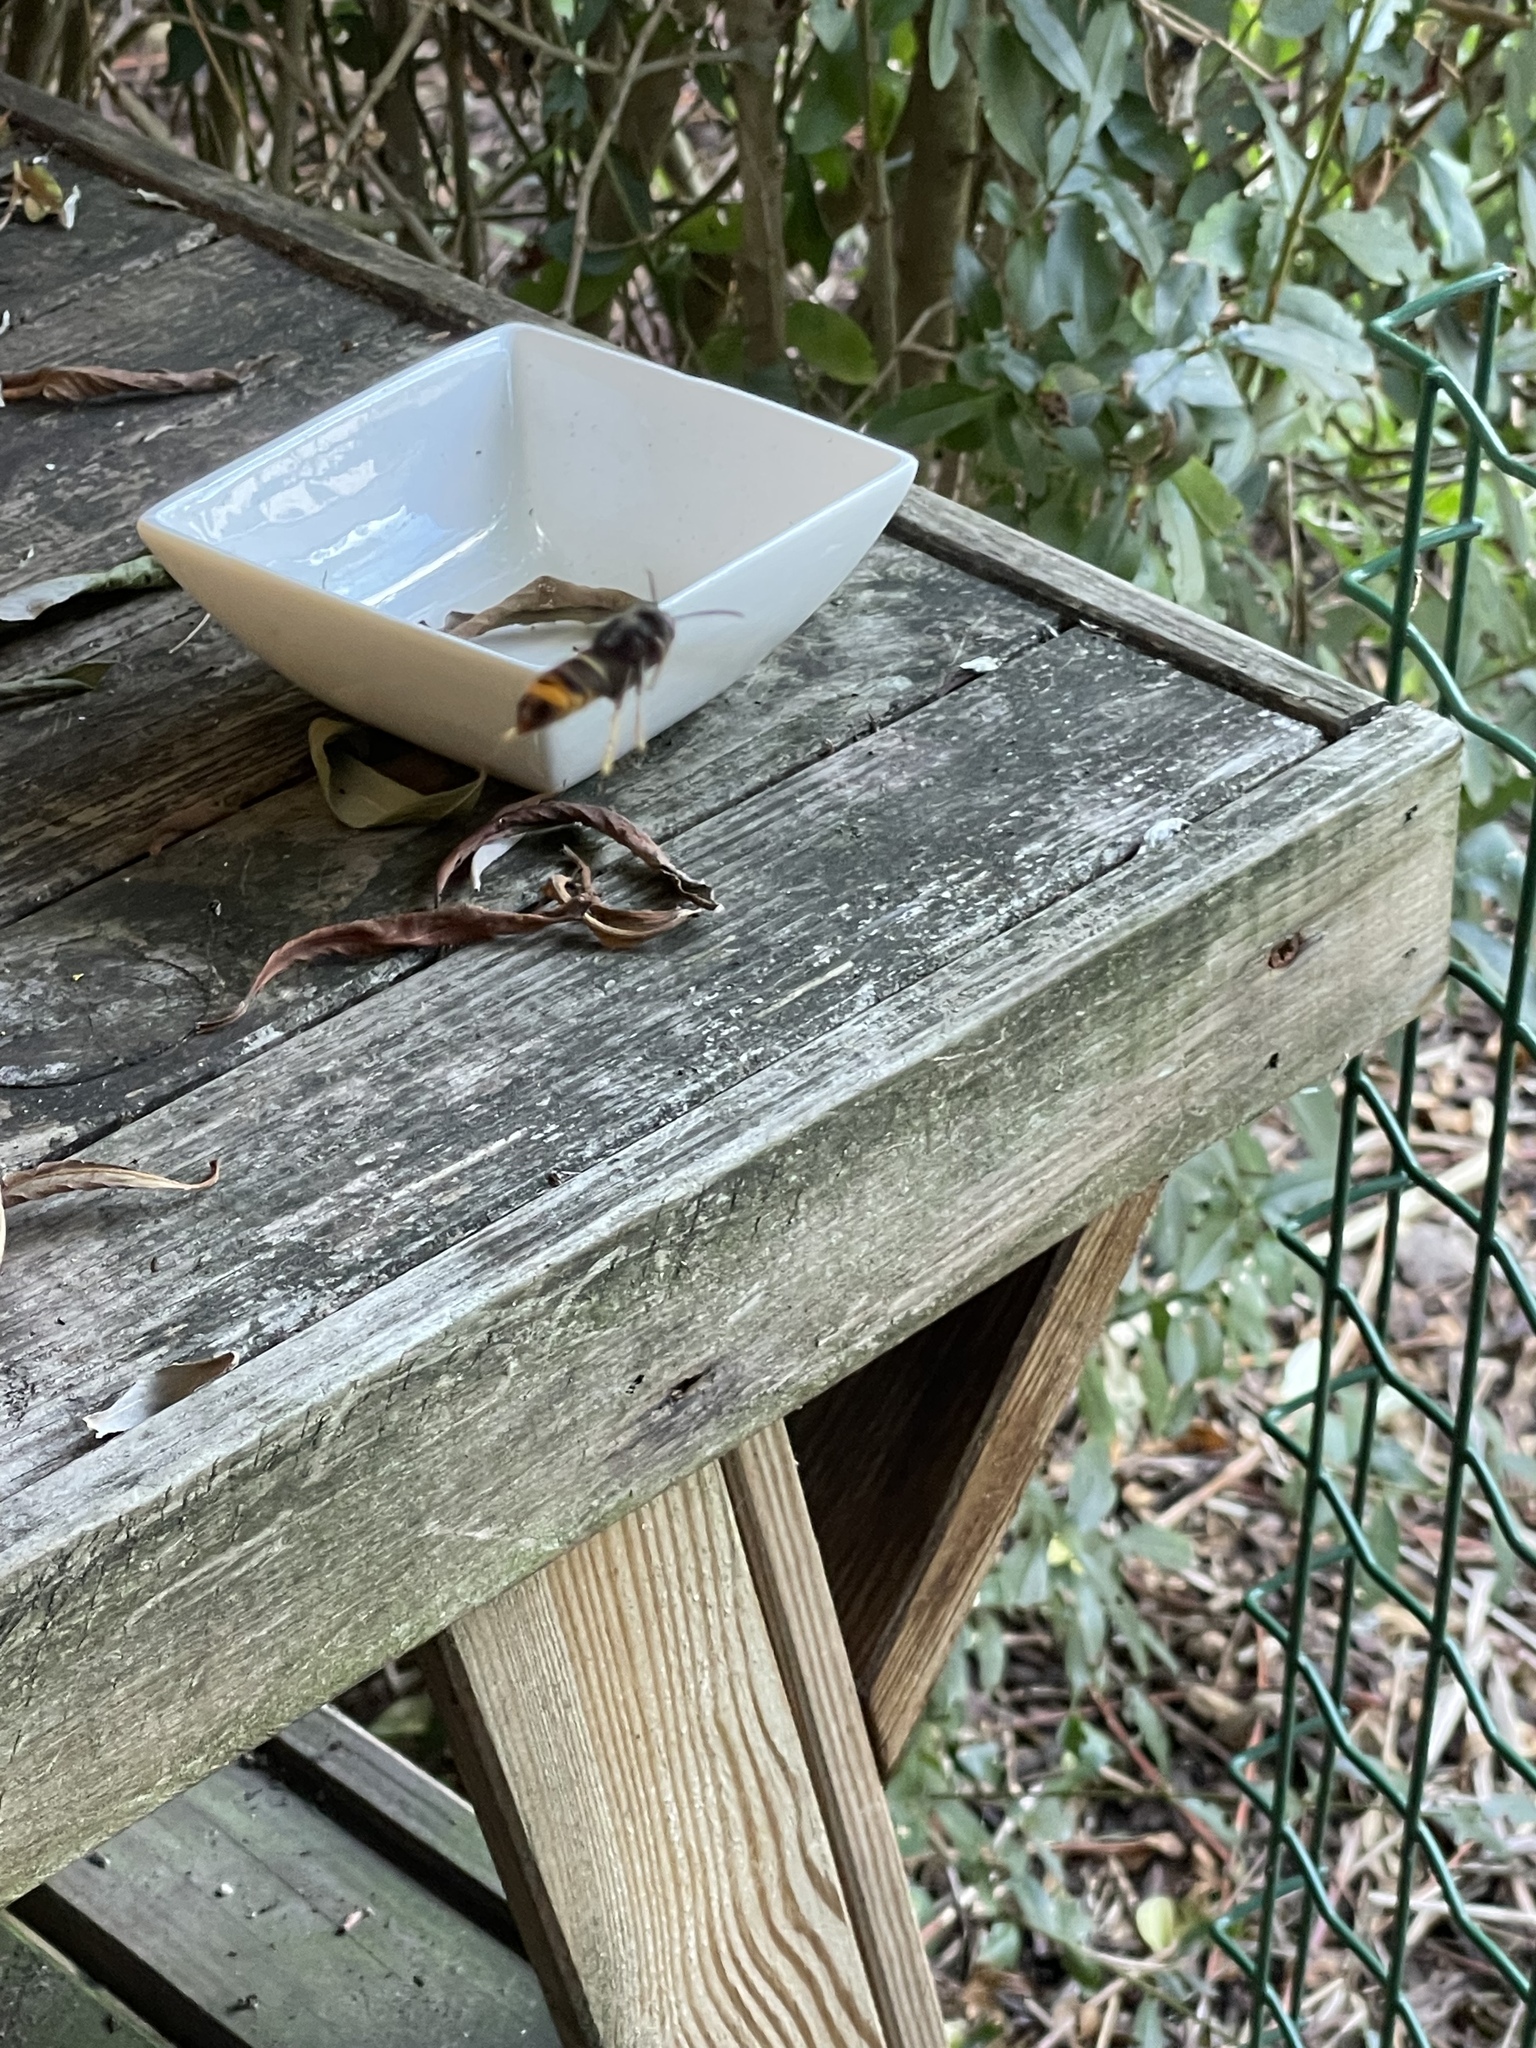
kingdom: Animalia
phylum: Arthropoda
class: Insecta
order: Hymenoptera
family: Vespidae
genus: Vespa
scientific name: Vespa velutina
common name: Asian hornet
